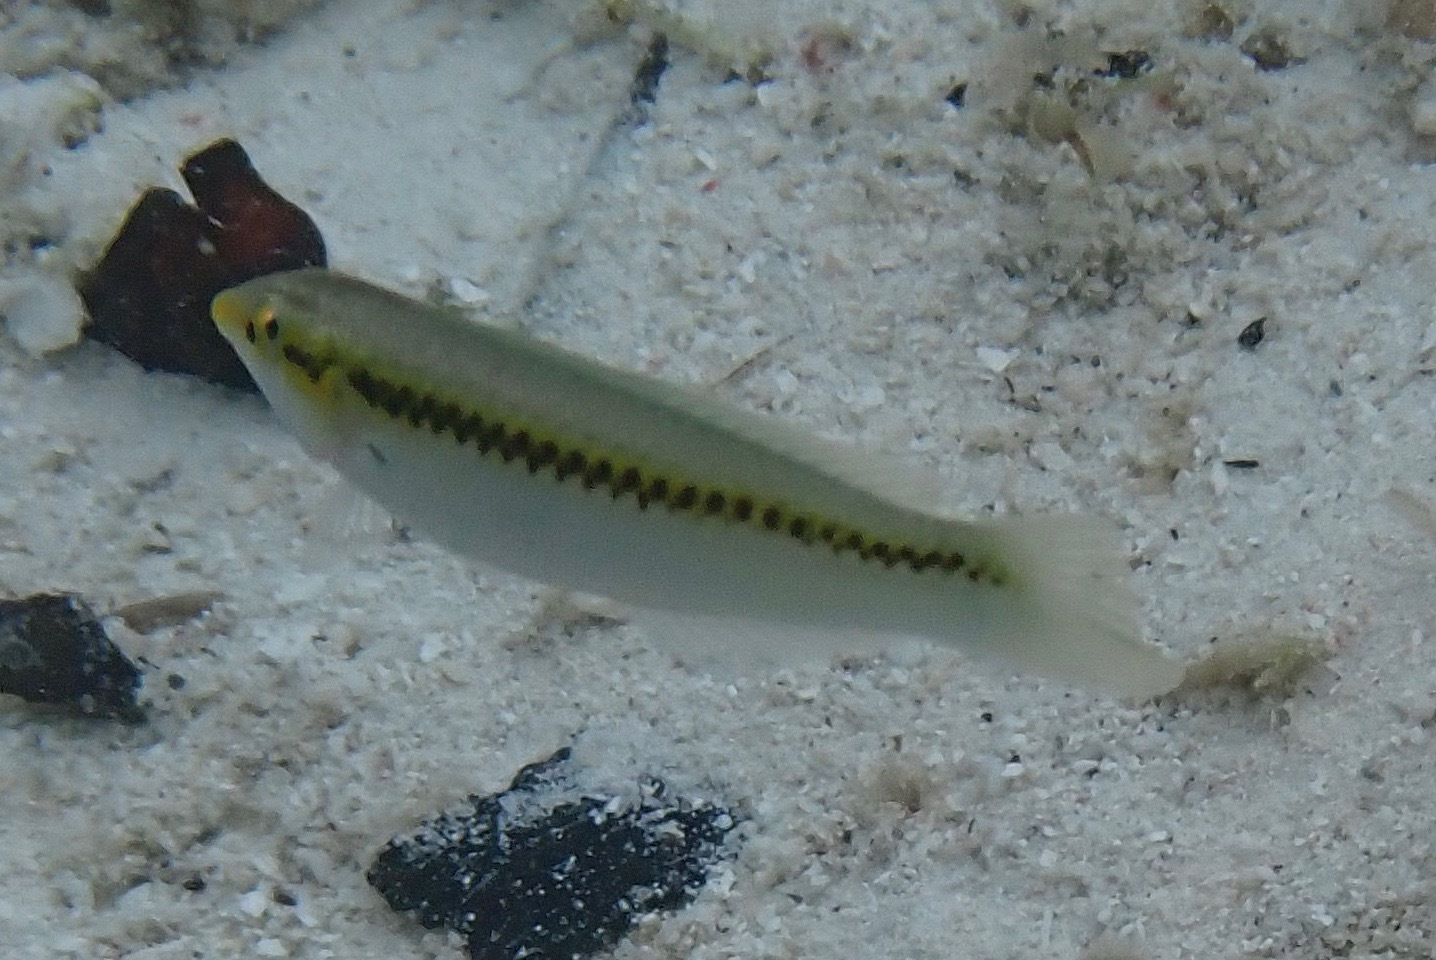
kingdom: Animalia
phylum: Chordata
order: Perciformes
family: Labridae
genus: Halichoeres
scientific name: Halichoeres scapularis
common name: Brownbanded wrasse
